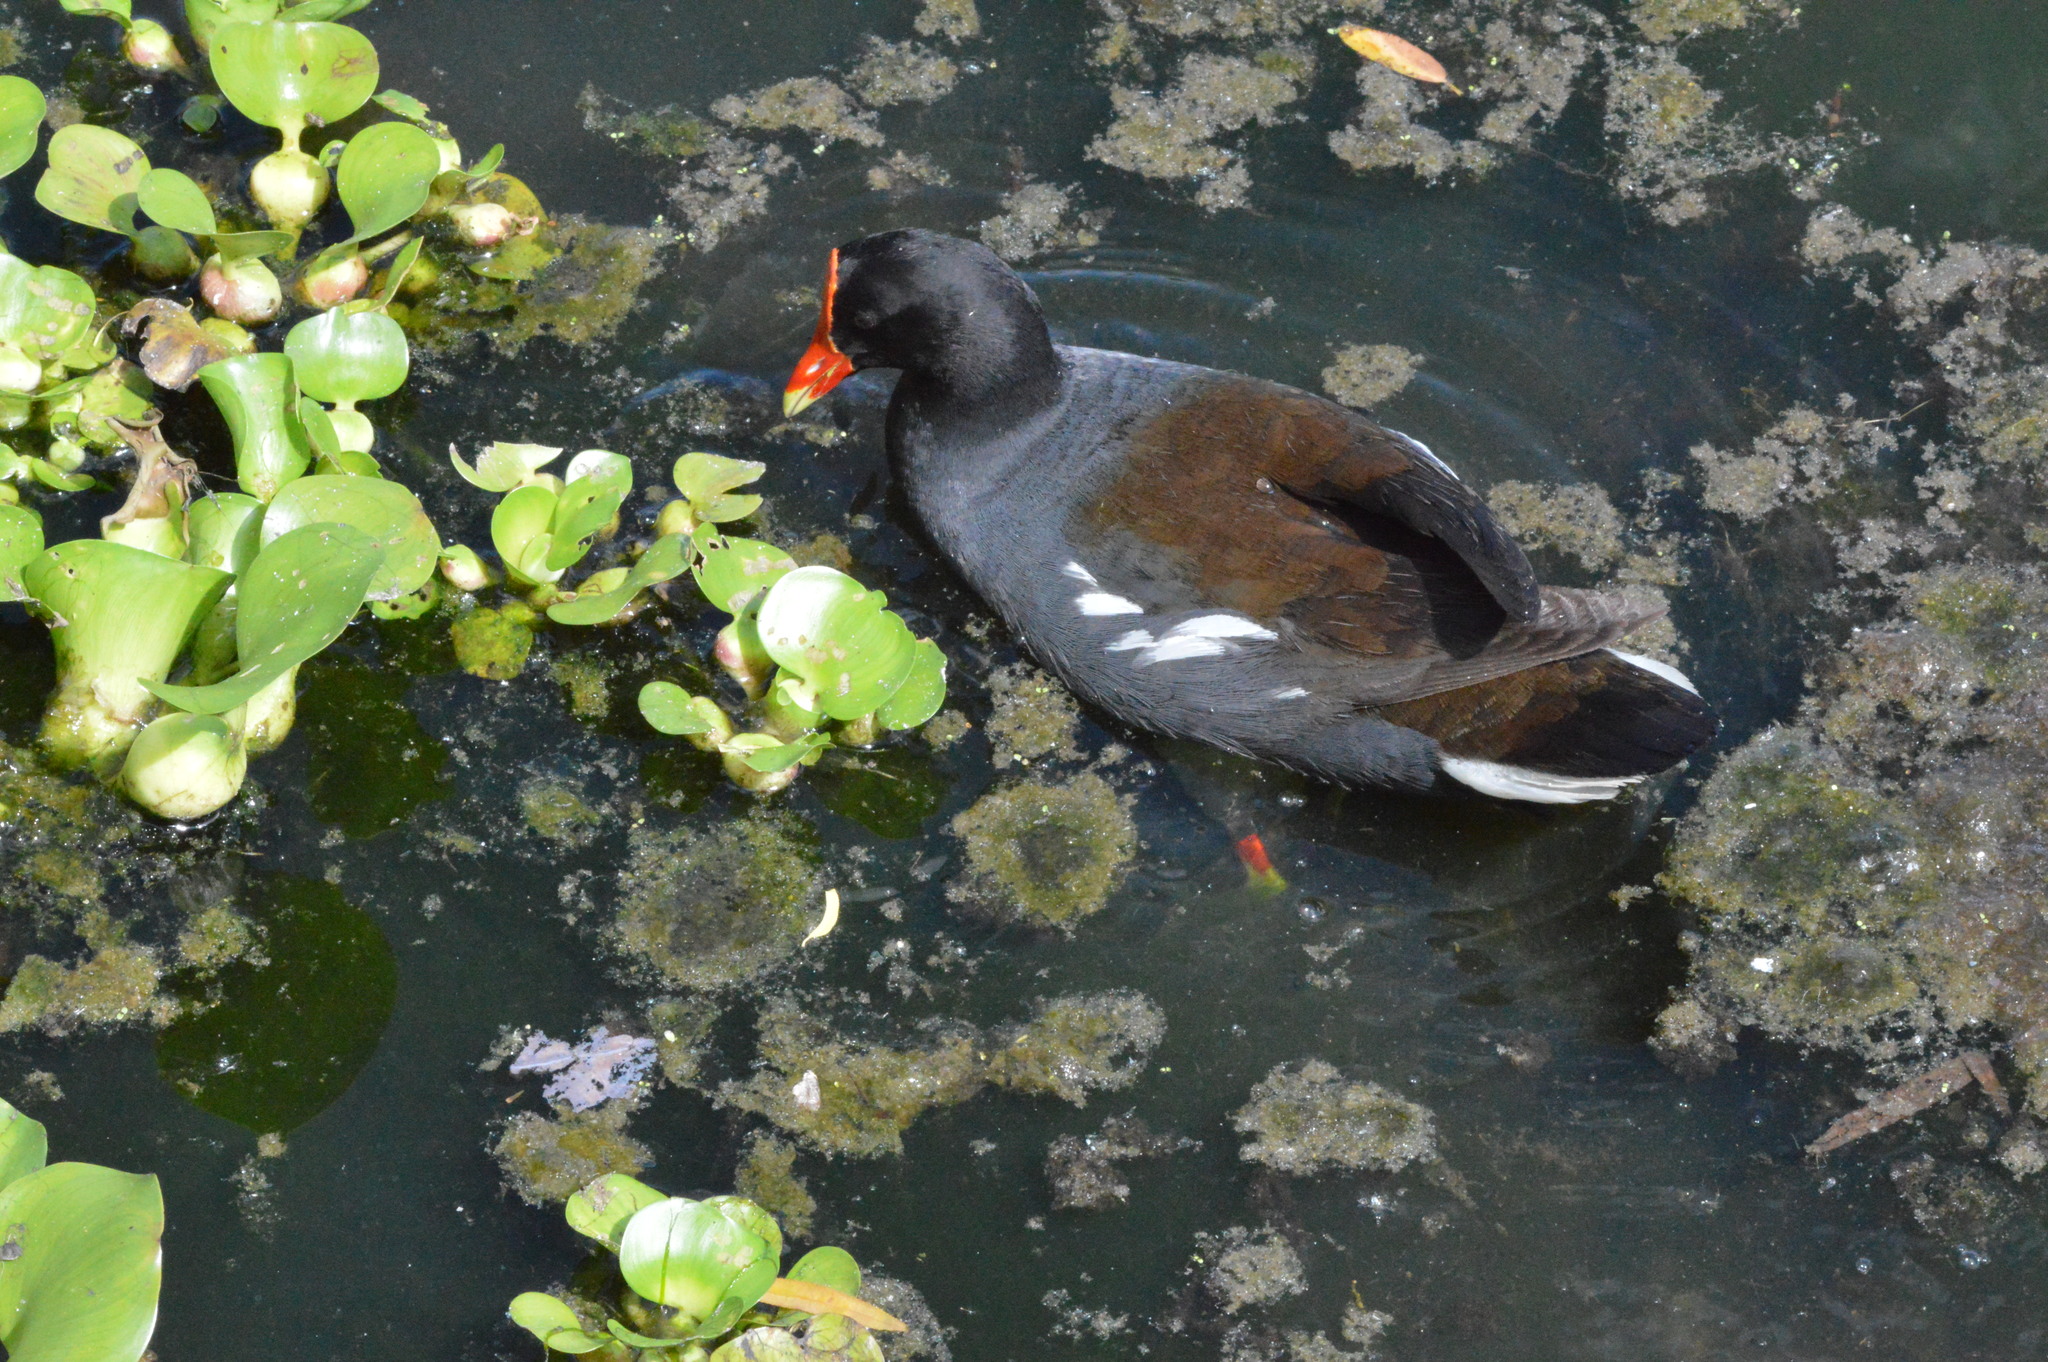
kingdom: Animalia
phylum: Chordata
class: Aves
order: Gruiformes
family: Rallidae
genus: Gallinula
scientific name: Gallinula chloropus
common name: Common moorhen
